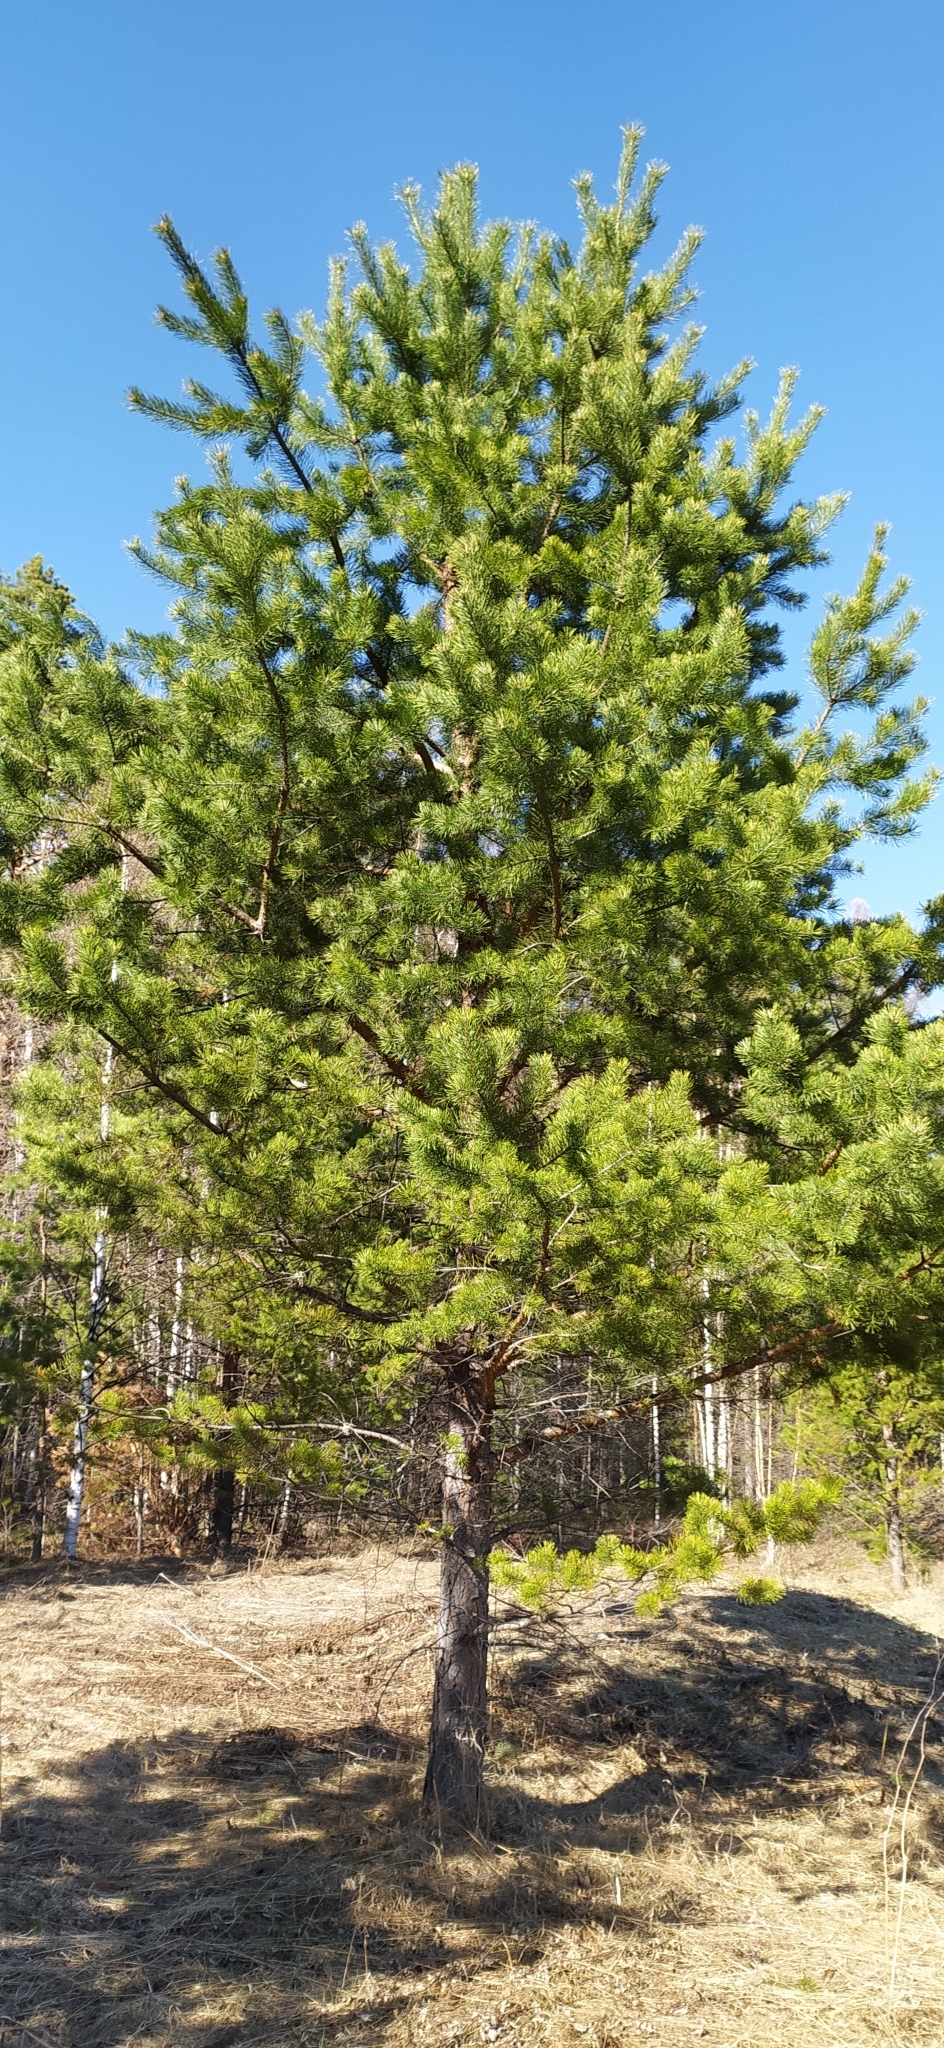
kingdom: Plantae
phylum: Tracheophyta
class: Pinopsida
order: Pinales
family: Pinaceae
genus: Pinus
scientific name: Pinus sylvestris
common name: Scots pine
